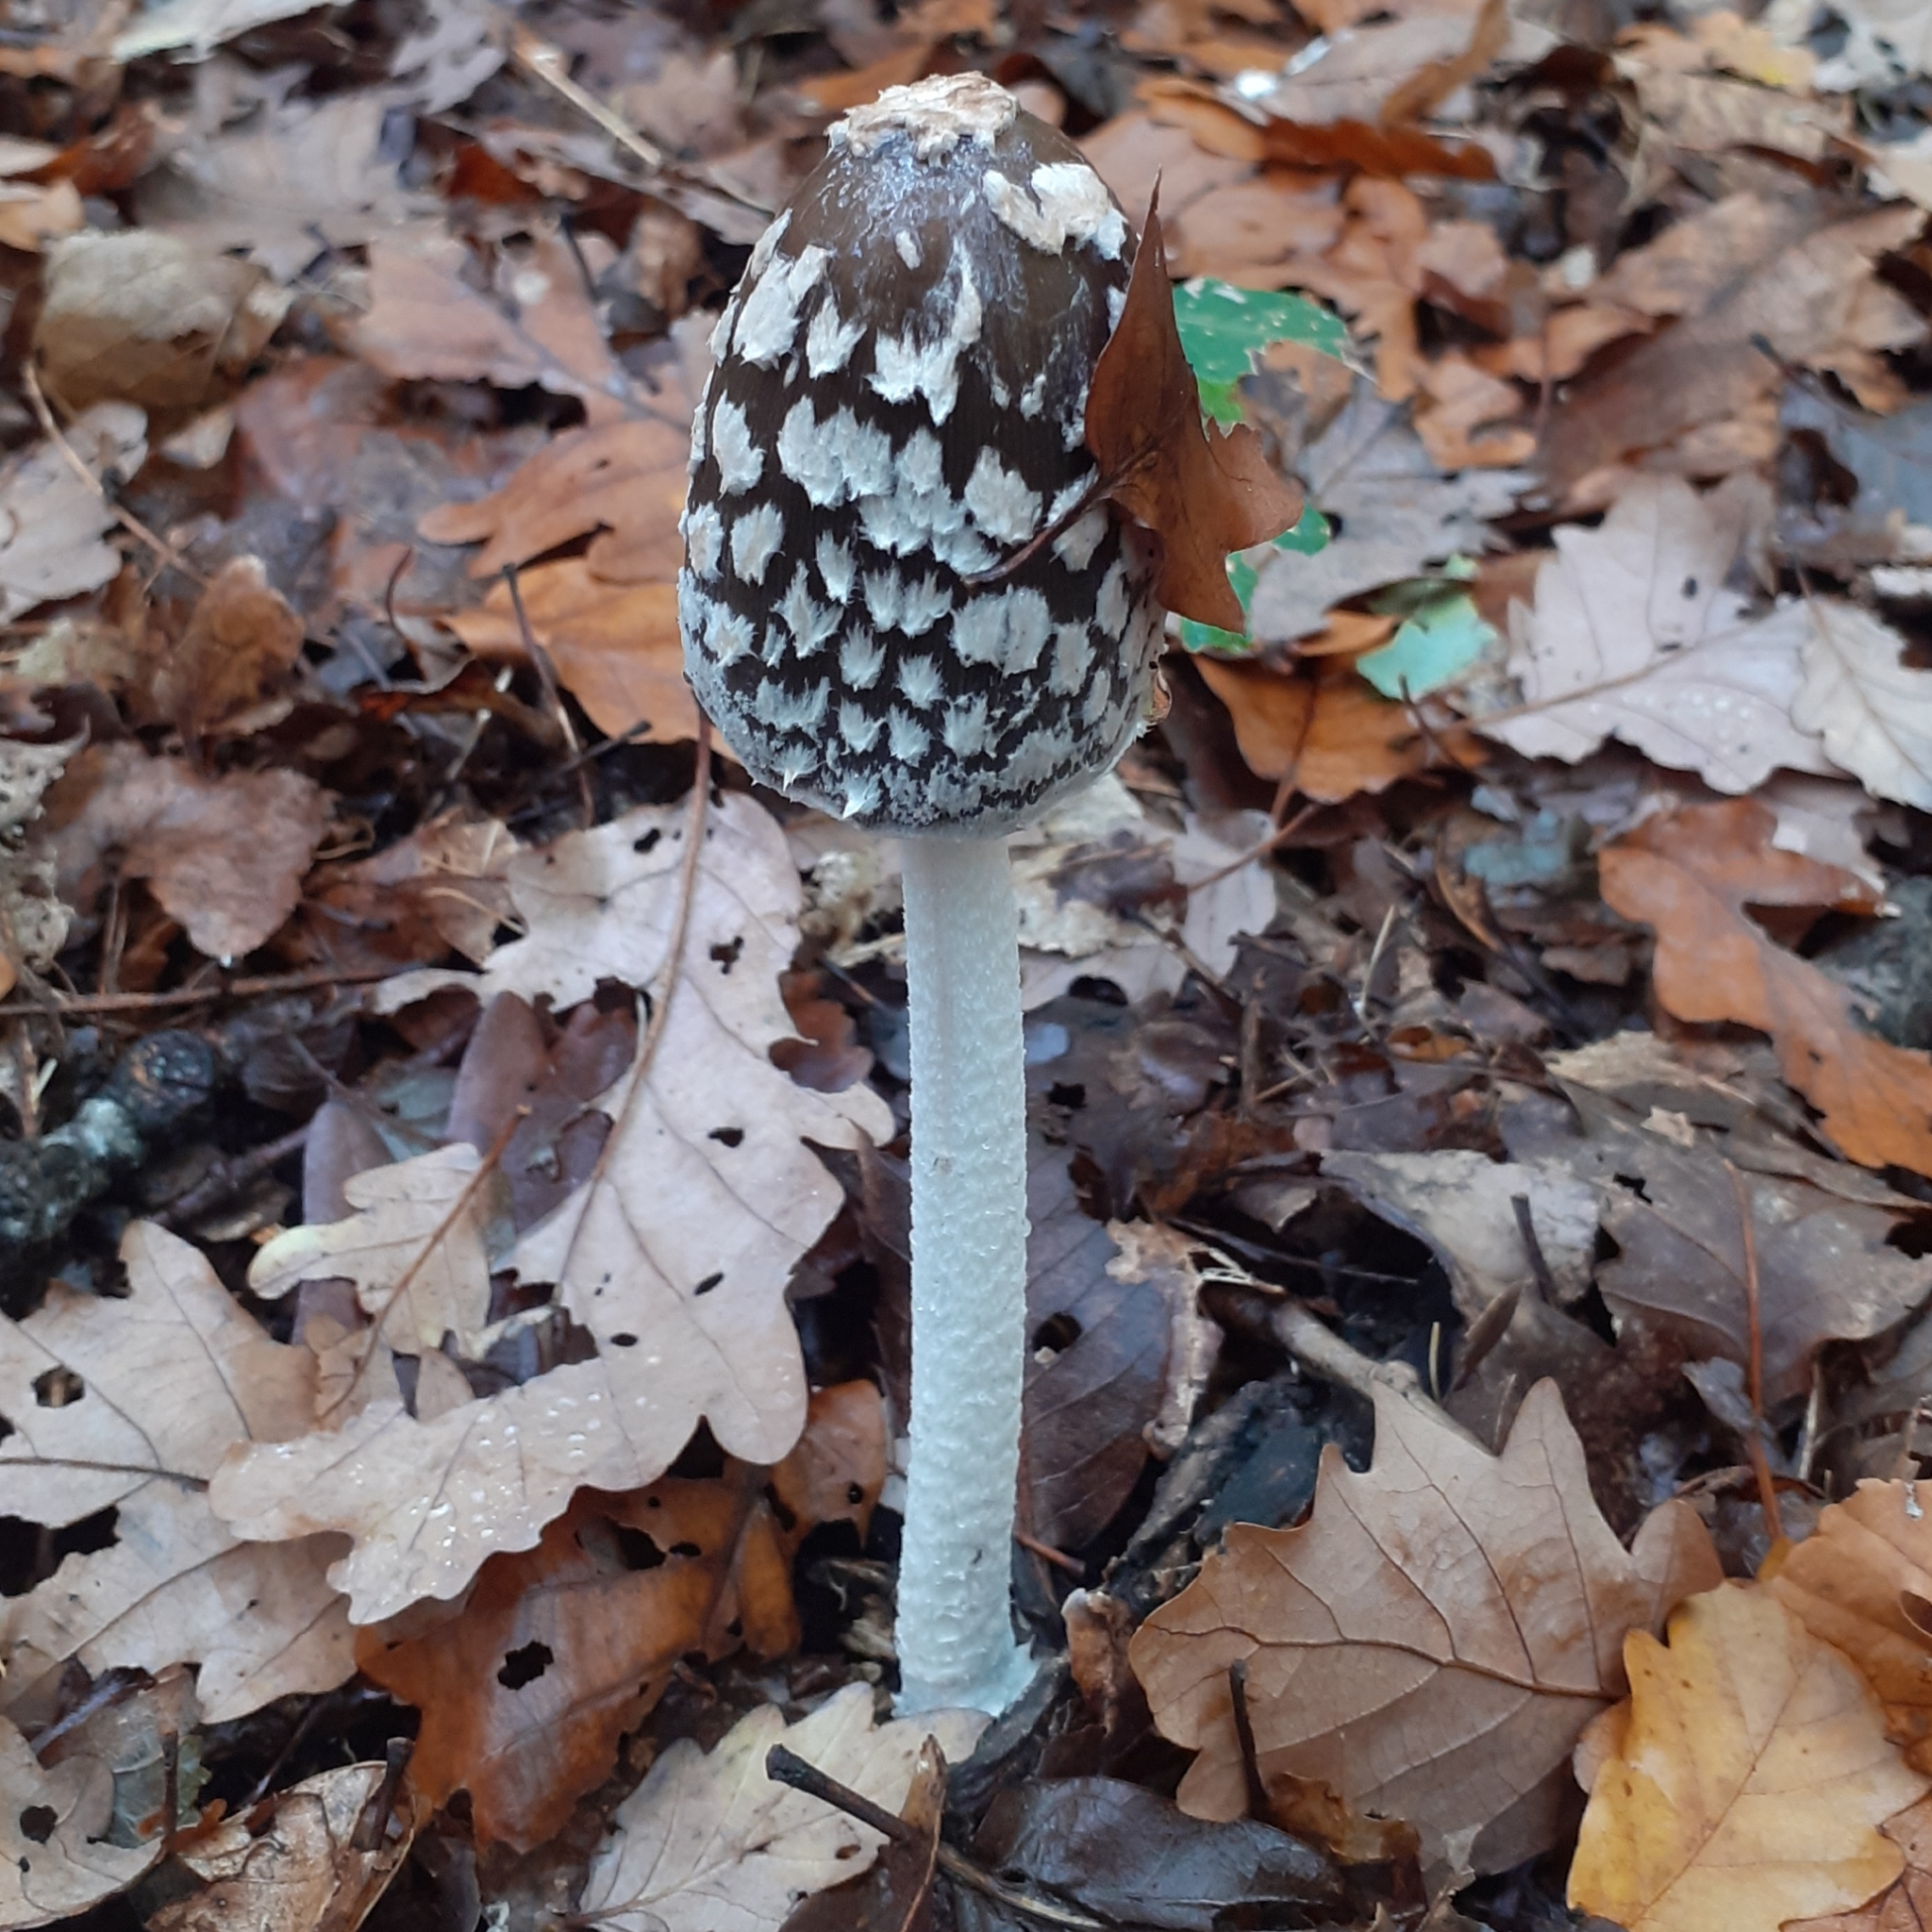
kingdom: Fungi
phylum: Basidiomycota
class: Agaricomycetes
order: Agaricales
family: Psathyrellaceae
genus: Coprinopsis
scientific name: Coprinopsis picacea
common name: Magpie inkcap
